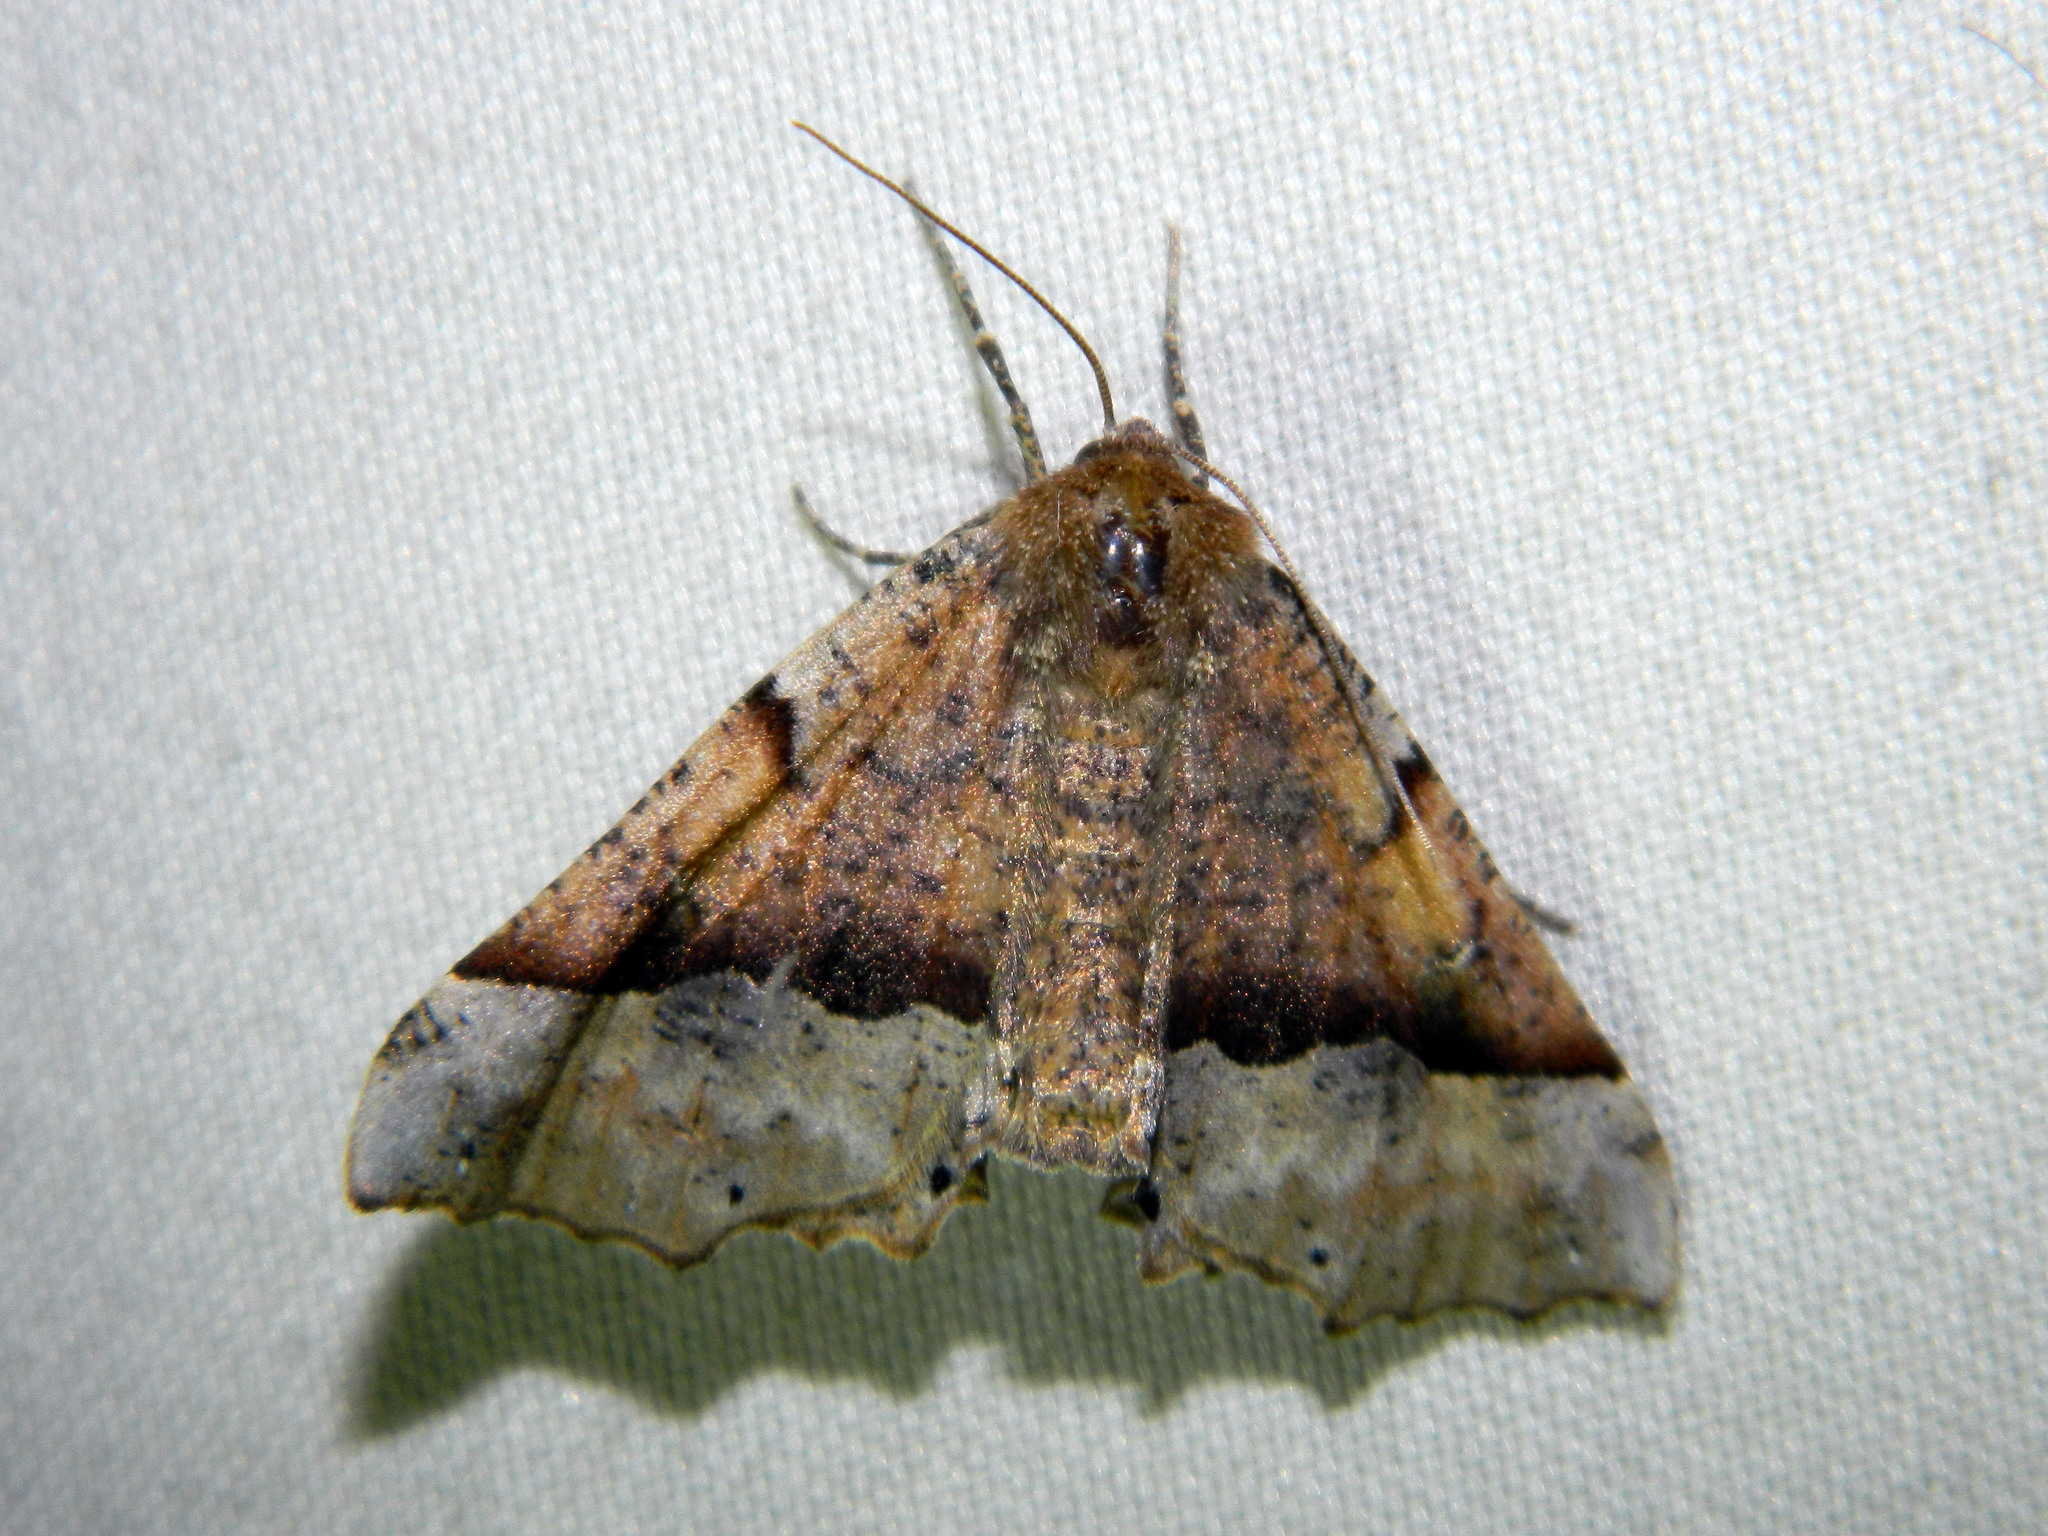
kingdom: Animalia
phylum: Arthropoda
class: Insecta
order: Lepidoptera
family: Geometridae
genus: Pero
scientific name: Pero morrisonaria
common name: Morrison's pero
